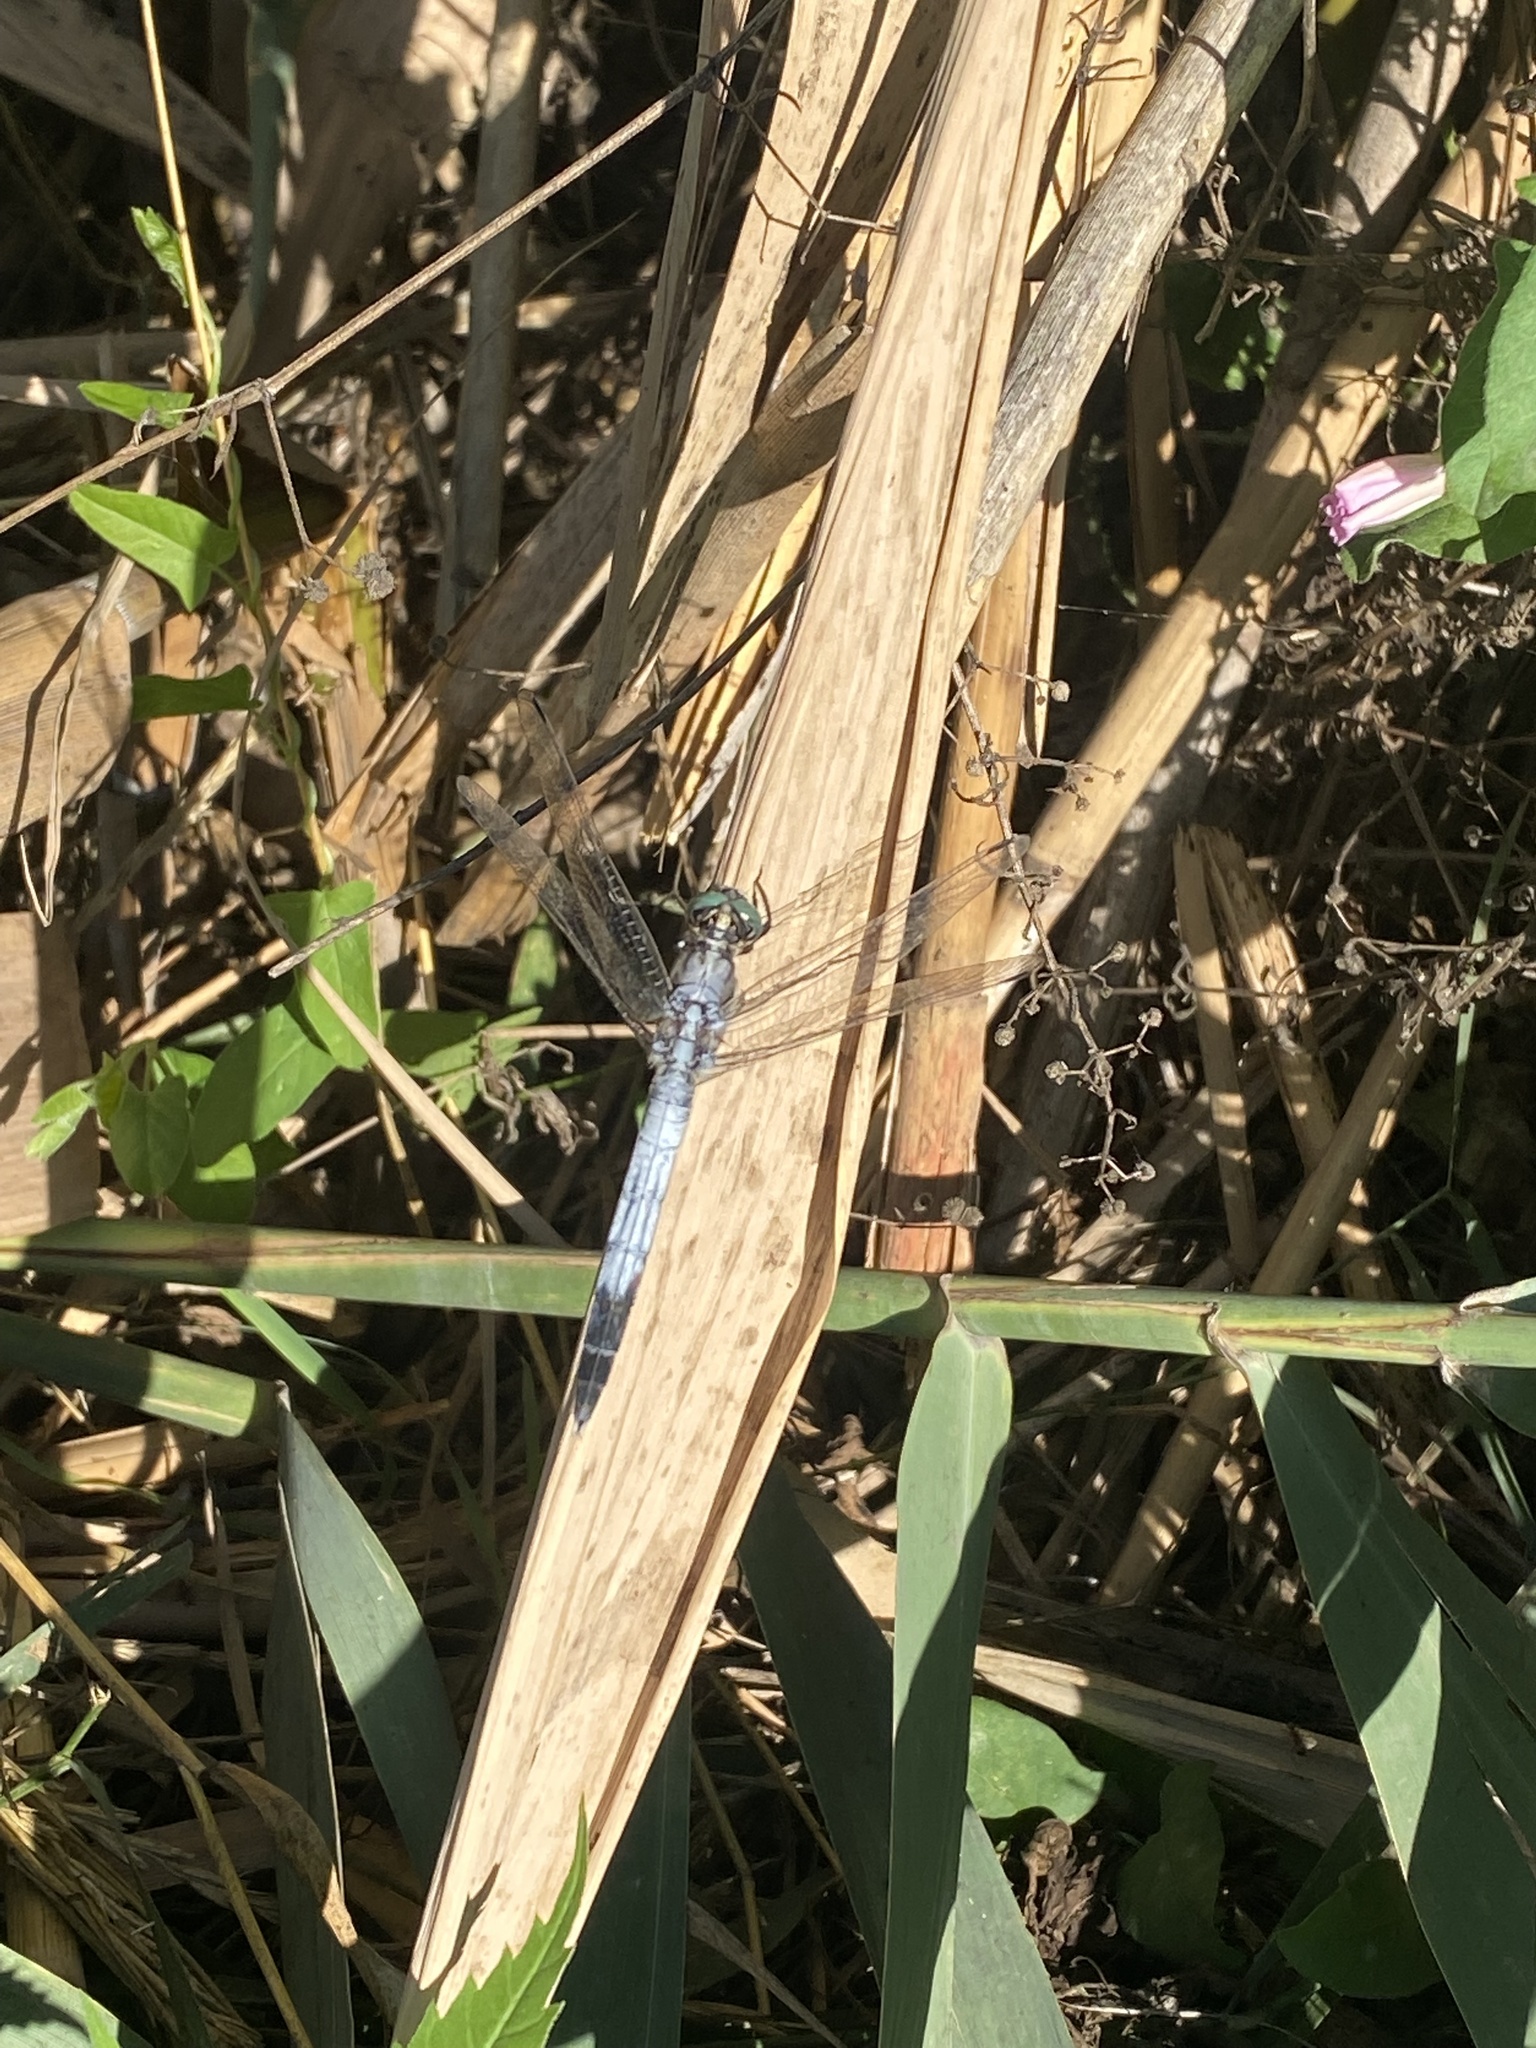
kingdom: Animalia
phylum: Arthropoda
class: Insecta
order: Odonata
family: Libellulidae
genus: Orthetrum
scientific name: Orthetrum albistylum
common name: White-tailed skimmer
